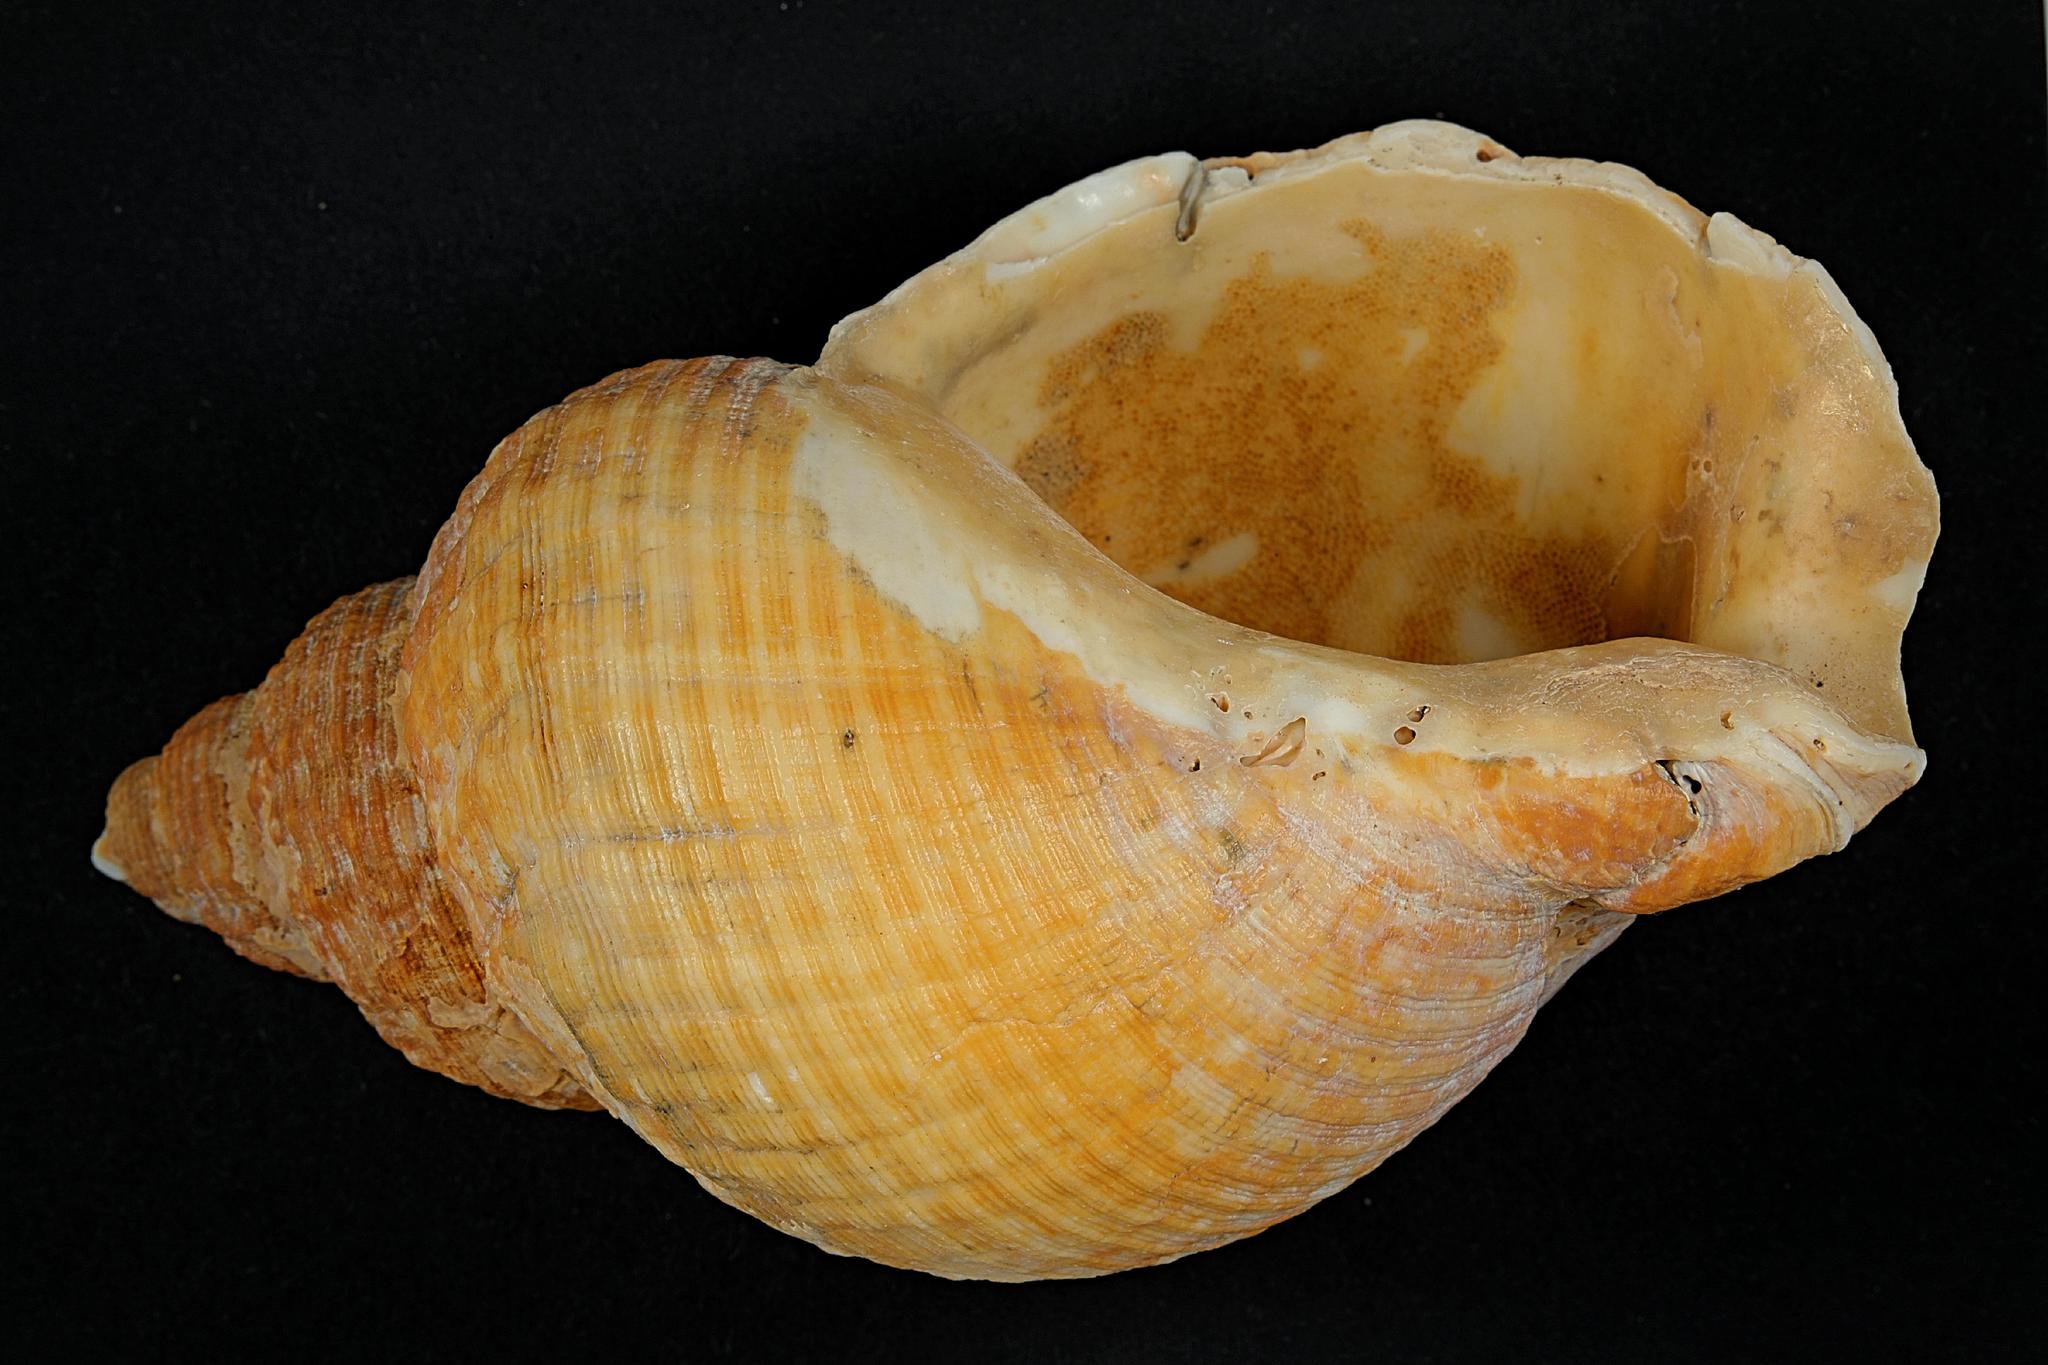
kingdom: Animalia
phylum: Mollusca
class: Gastropoda
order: Neogastropoda
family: Buccinidae
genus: Buccinum
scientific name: Buccinum undatum
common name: Common whelk
